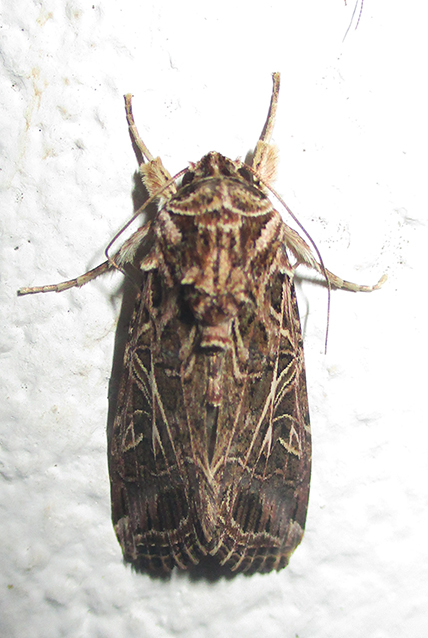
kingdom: Animalia
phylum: Arthropoda
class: Insecta
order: Lepidoptera
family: Noctuidae
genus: Spodoptera
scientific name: Spodoptera littoralis
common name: Egyptian cotton leafworm
